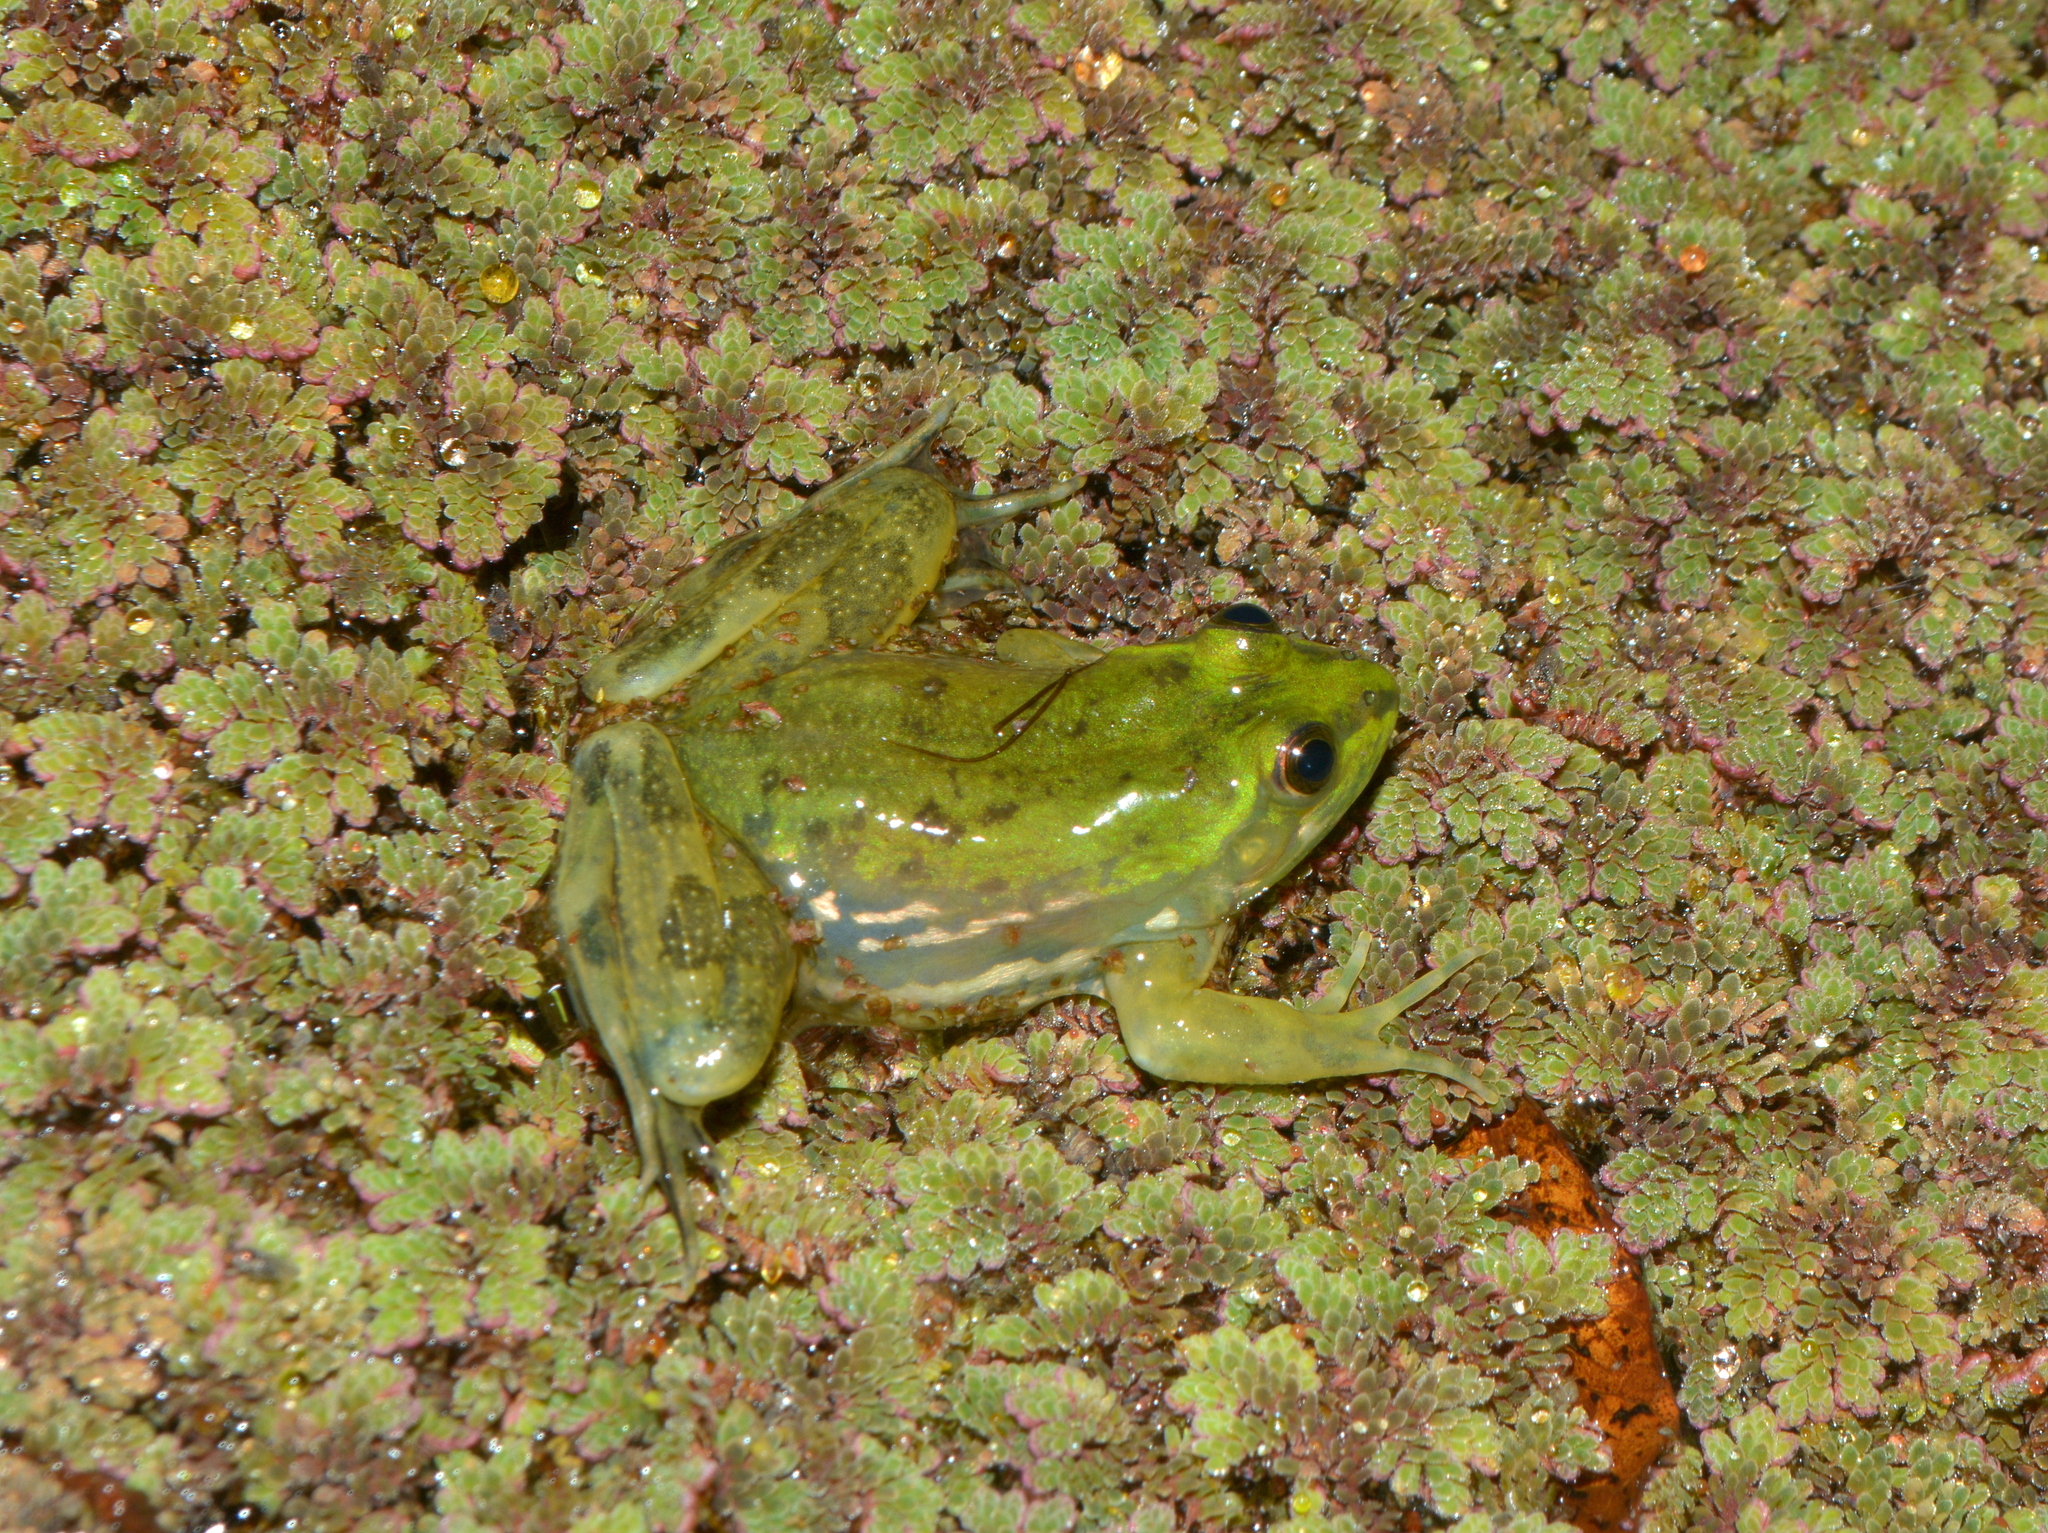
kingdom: Animalia
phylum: Chordata
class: Amphibia
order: Anura
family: Hylidae
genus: Pseudis
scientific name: Pseudis minuta
